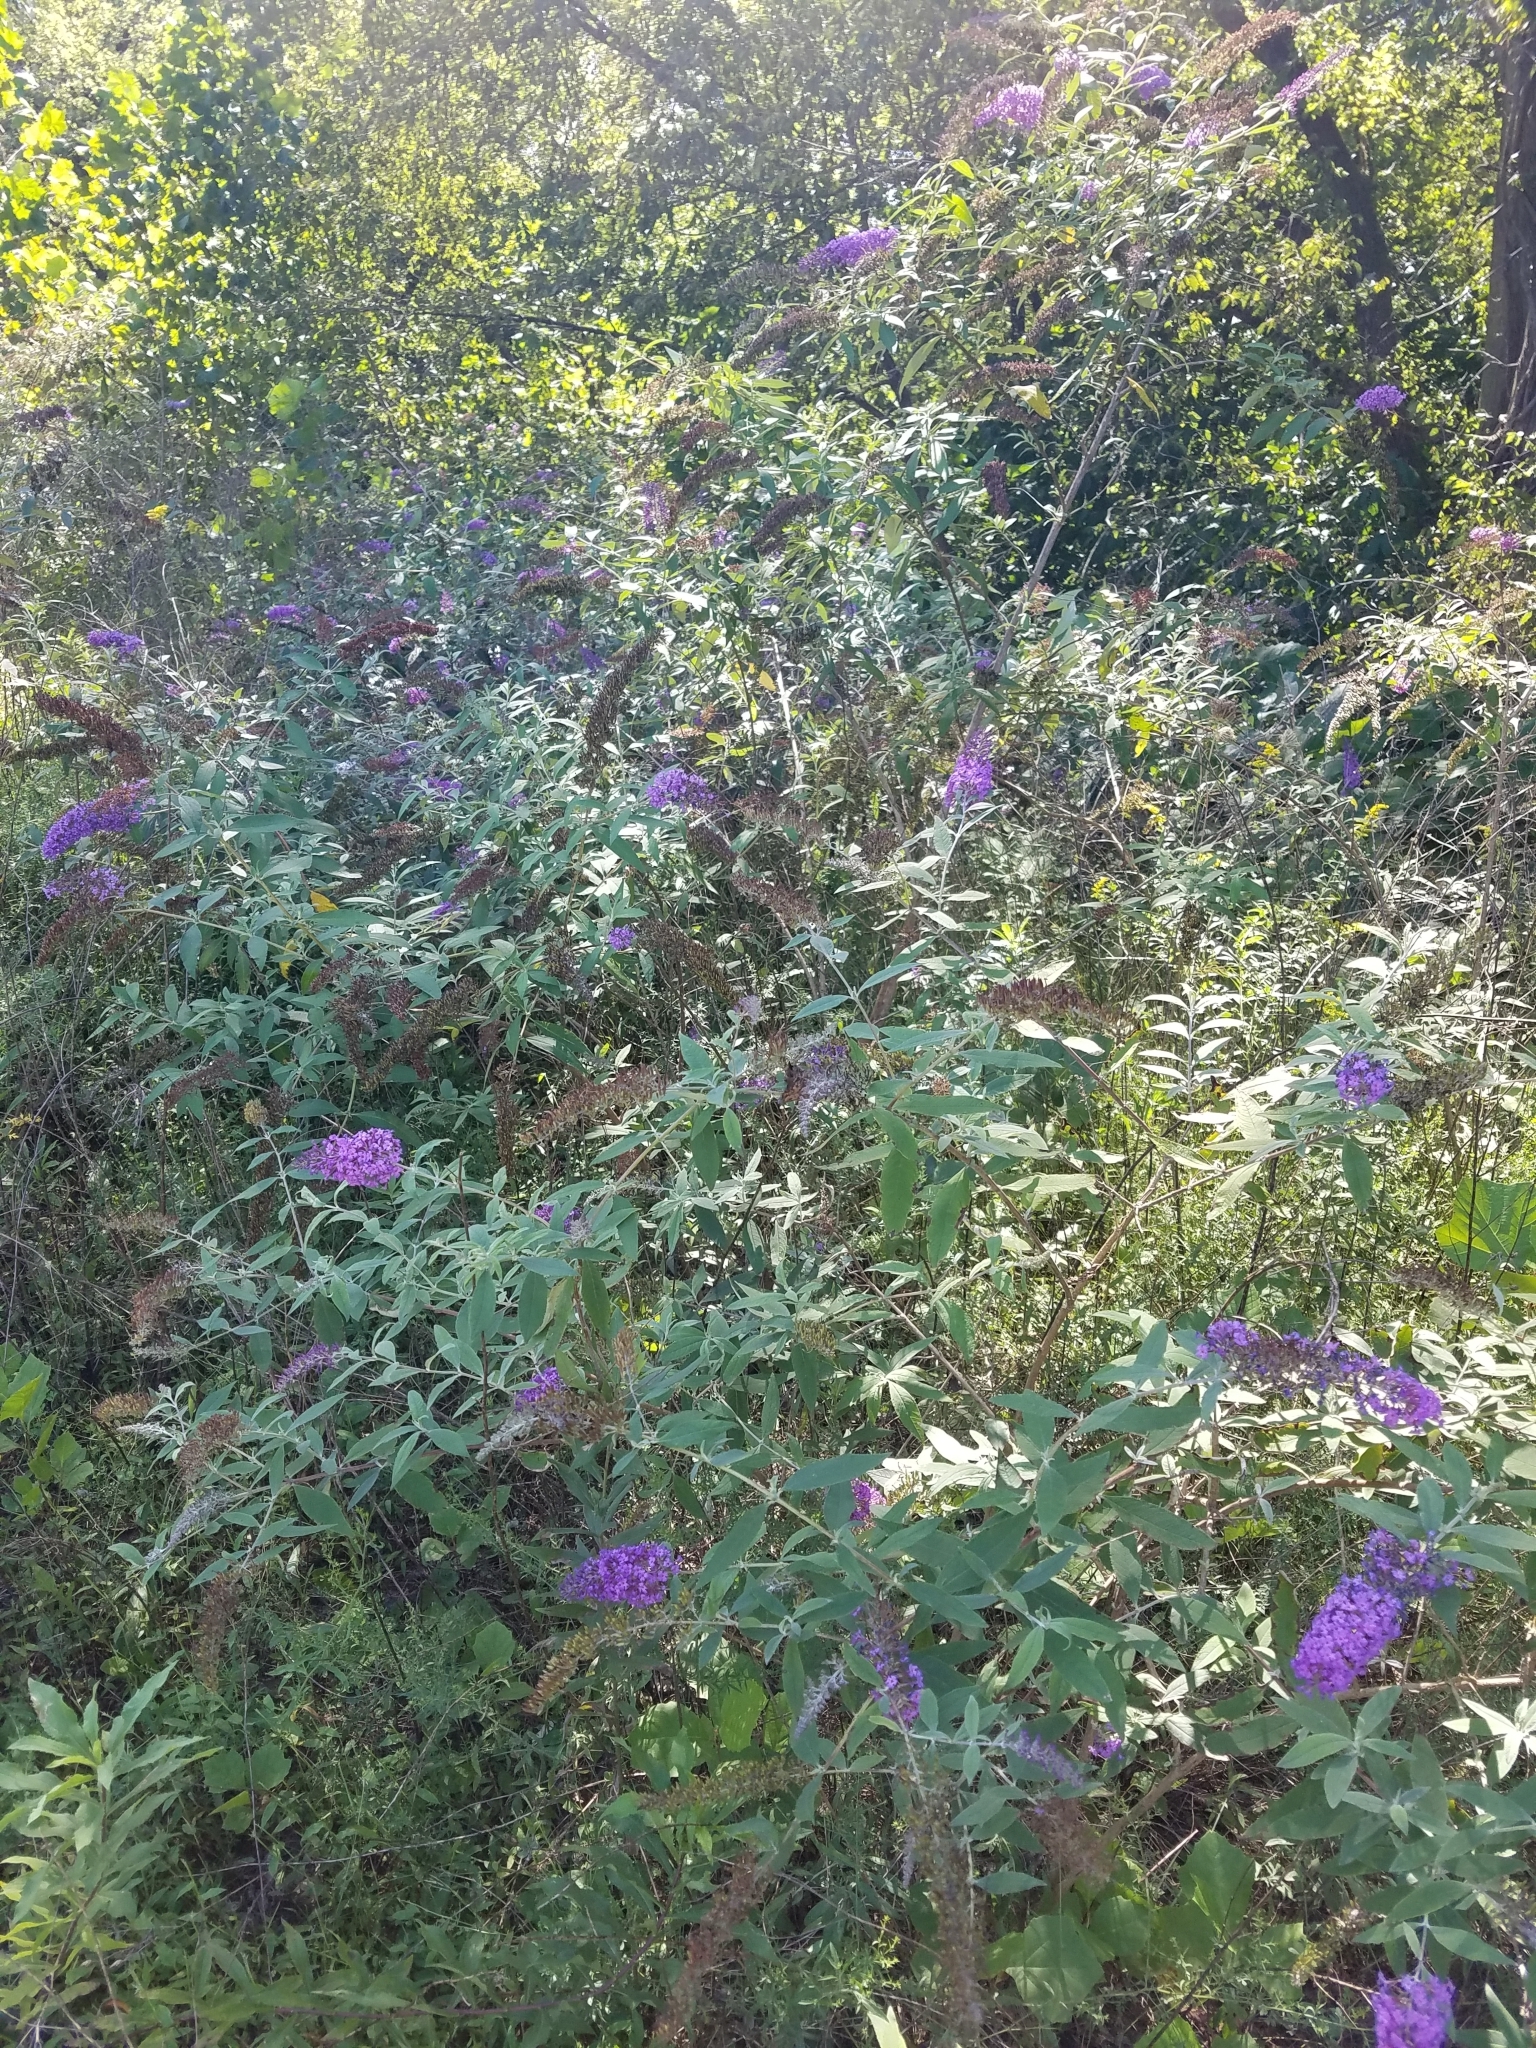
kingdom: Plantae
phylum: Tracheophyta
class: Magnoliopsida
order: Lamiales
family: Scrophulariaceae
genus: Buddleja
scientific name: Buddleja davidii
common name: Butterfly-bush
